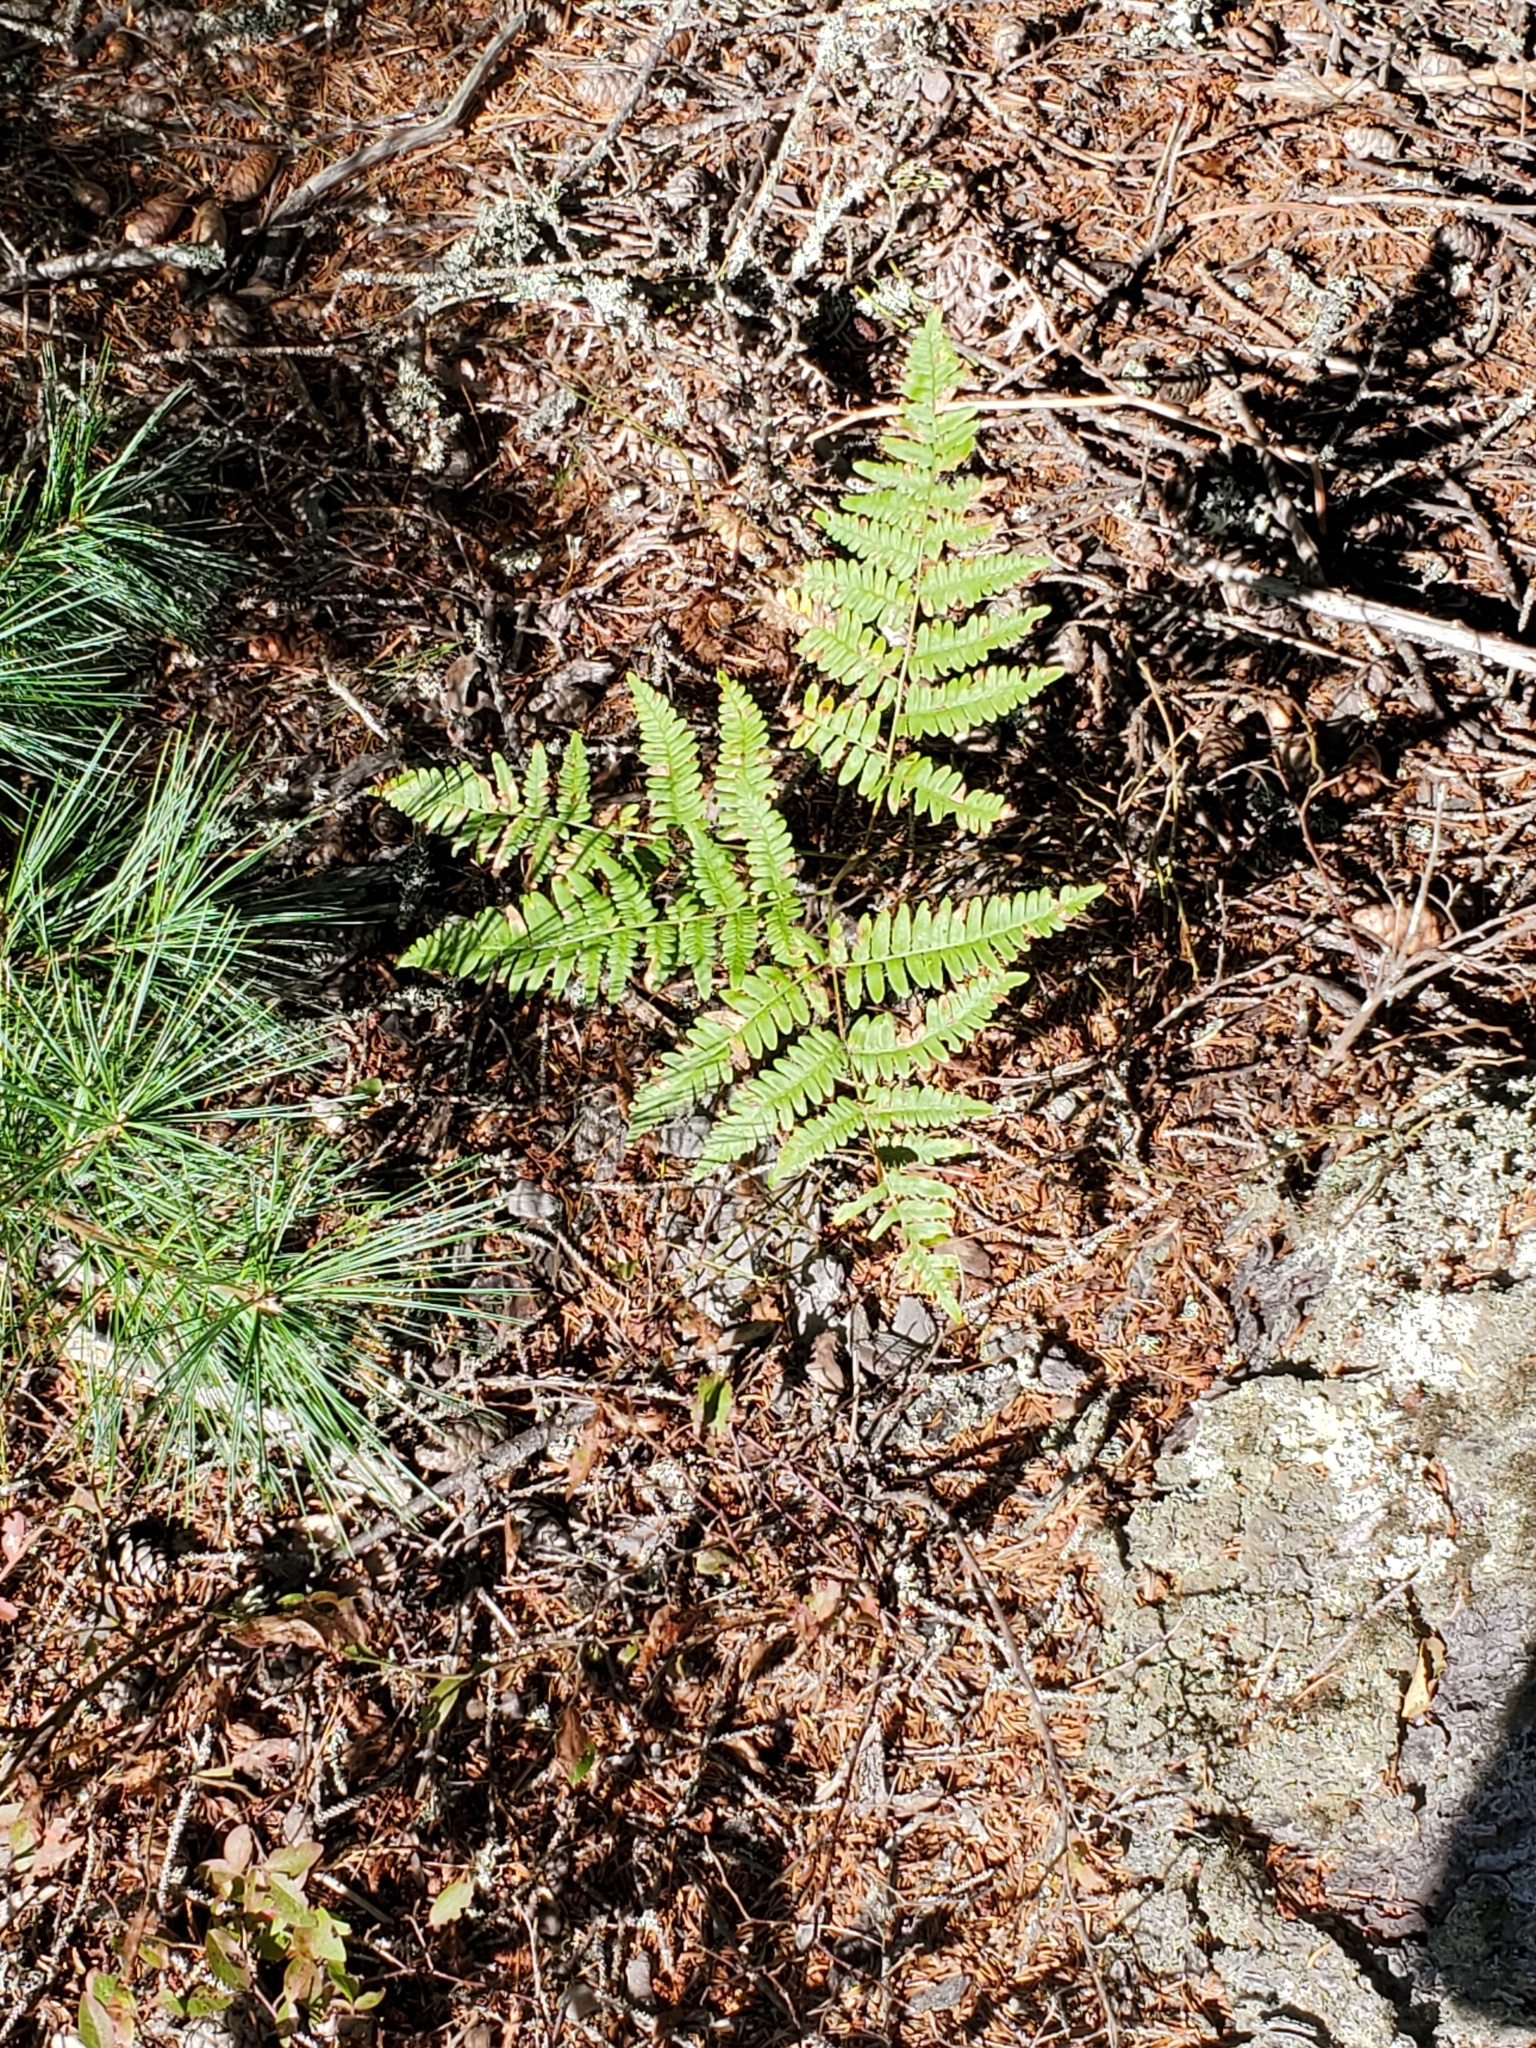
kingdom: Plantae
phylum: Tracheophyta
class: Polypodiopsida
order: Polypodiales
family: Dennstaedtiaceae
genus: Pteridium
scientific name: Pteridium aquilinum
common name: Bracken
